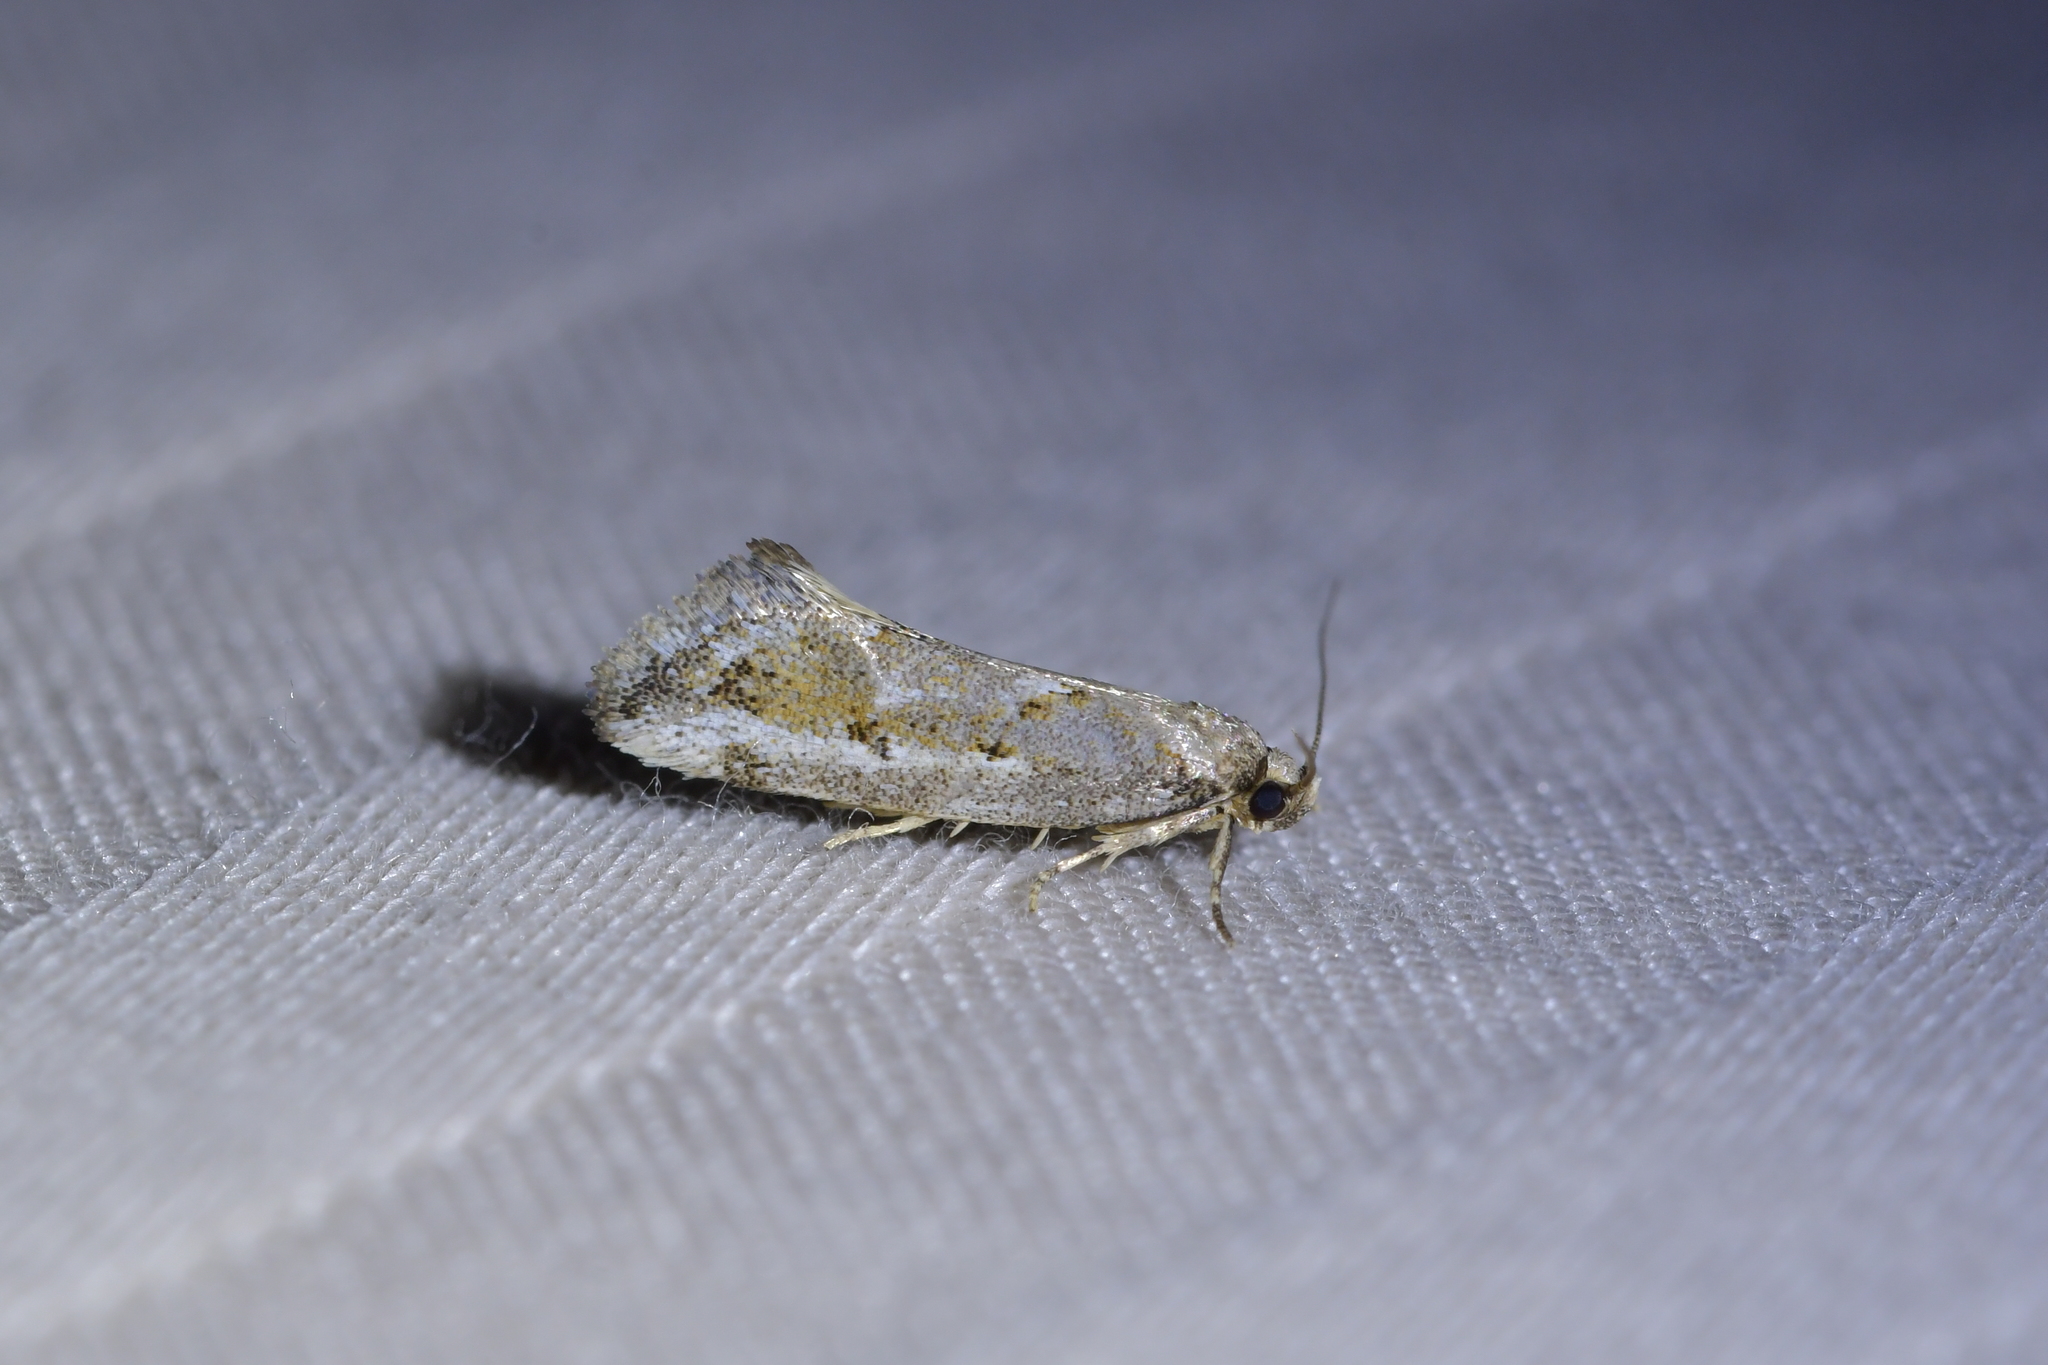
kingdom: Animalia
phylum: Arthropoda
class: Insecta
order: Lepidoptera
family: Oecophoridae
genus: Tingena
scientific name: Tingena hemimochla
